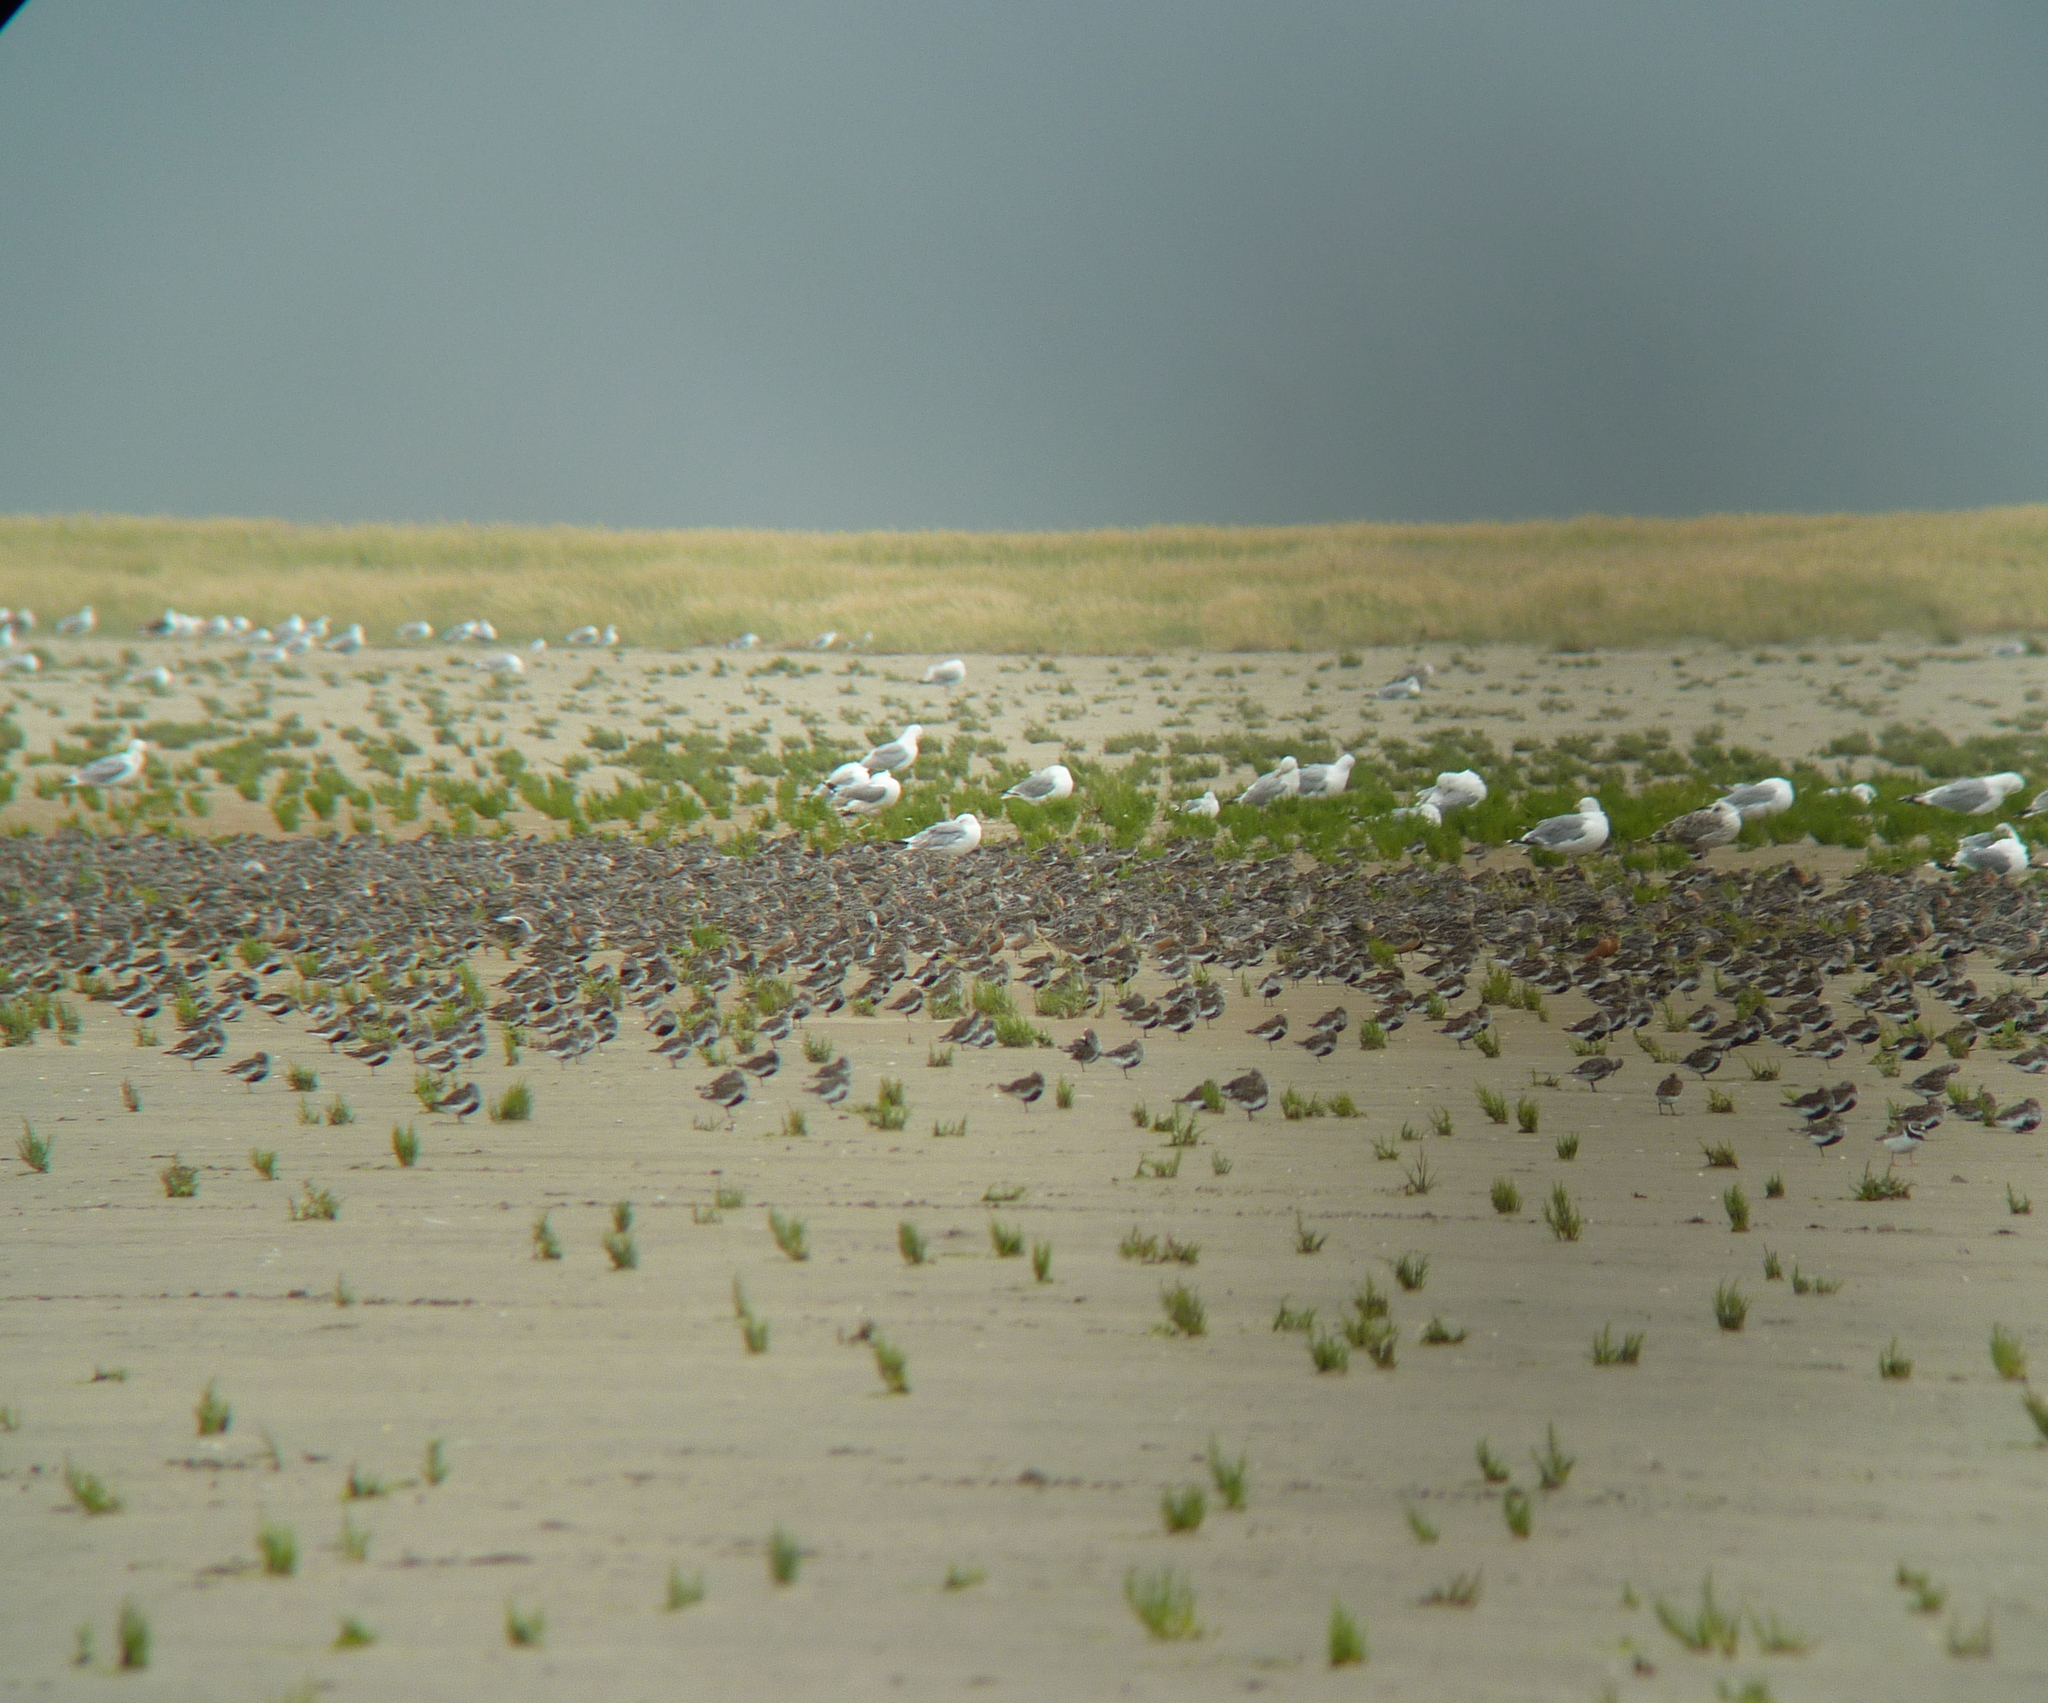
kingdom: Animalia
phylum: Chordata
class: Aves
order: Charadriiformes
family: Scolopacidae
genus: Calidris
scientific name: Calidris alpina
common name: Dunlin
